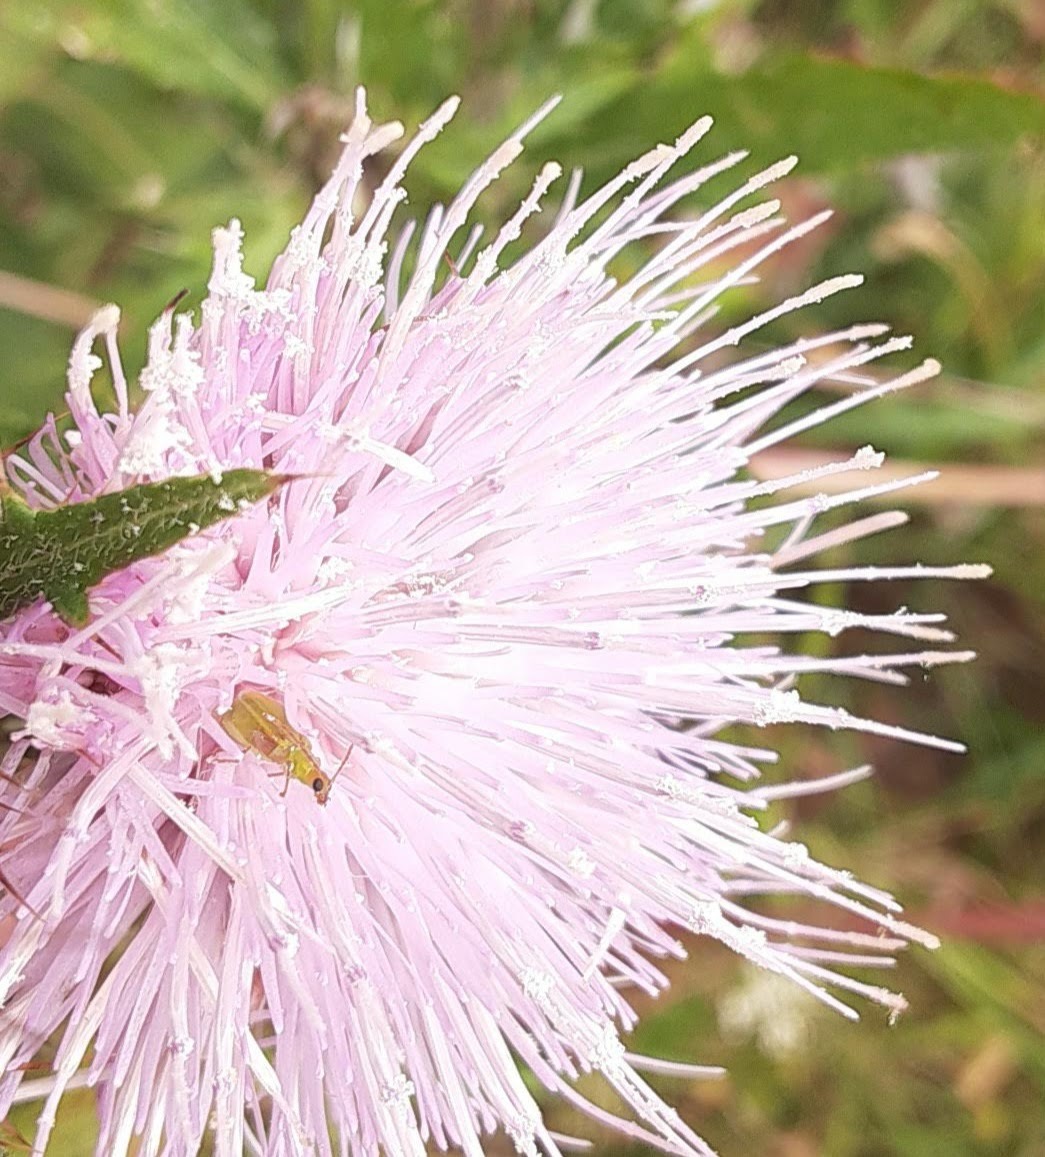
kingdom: Plantae
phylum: Tracheophyta
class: Magnoliopsida
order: Asterales
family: Asteraceae
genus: Cirsium
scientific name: Cirsium
